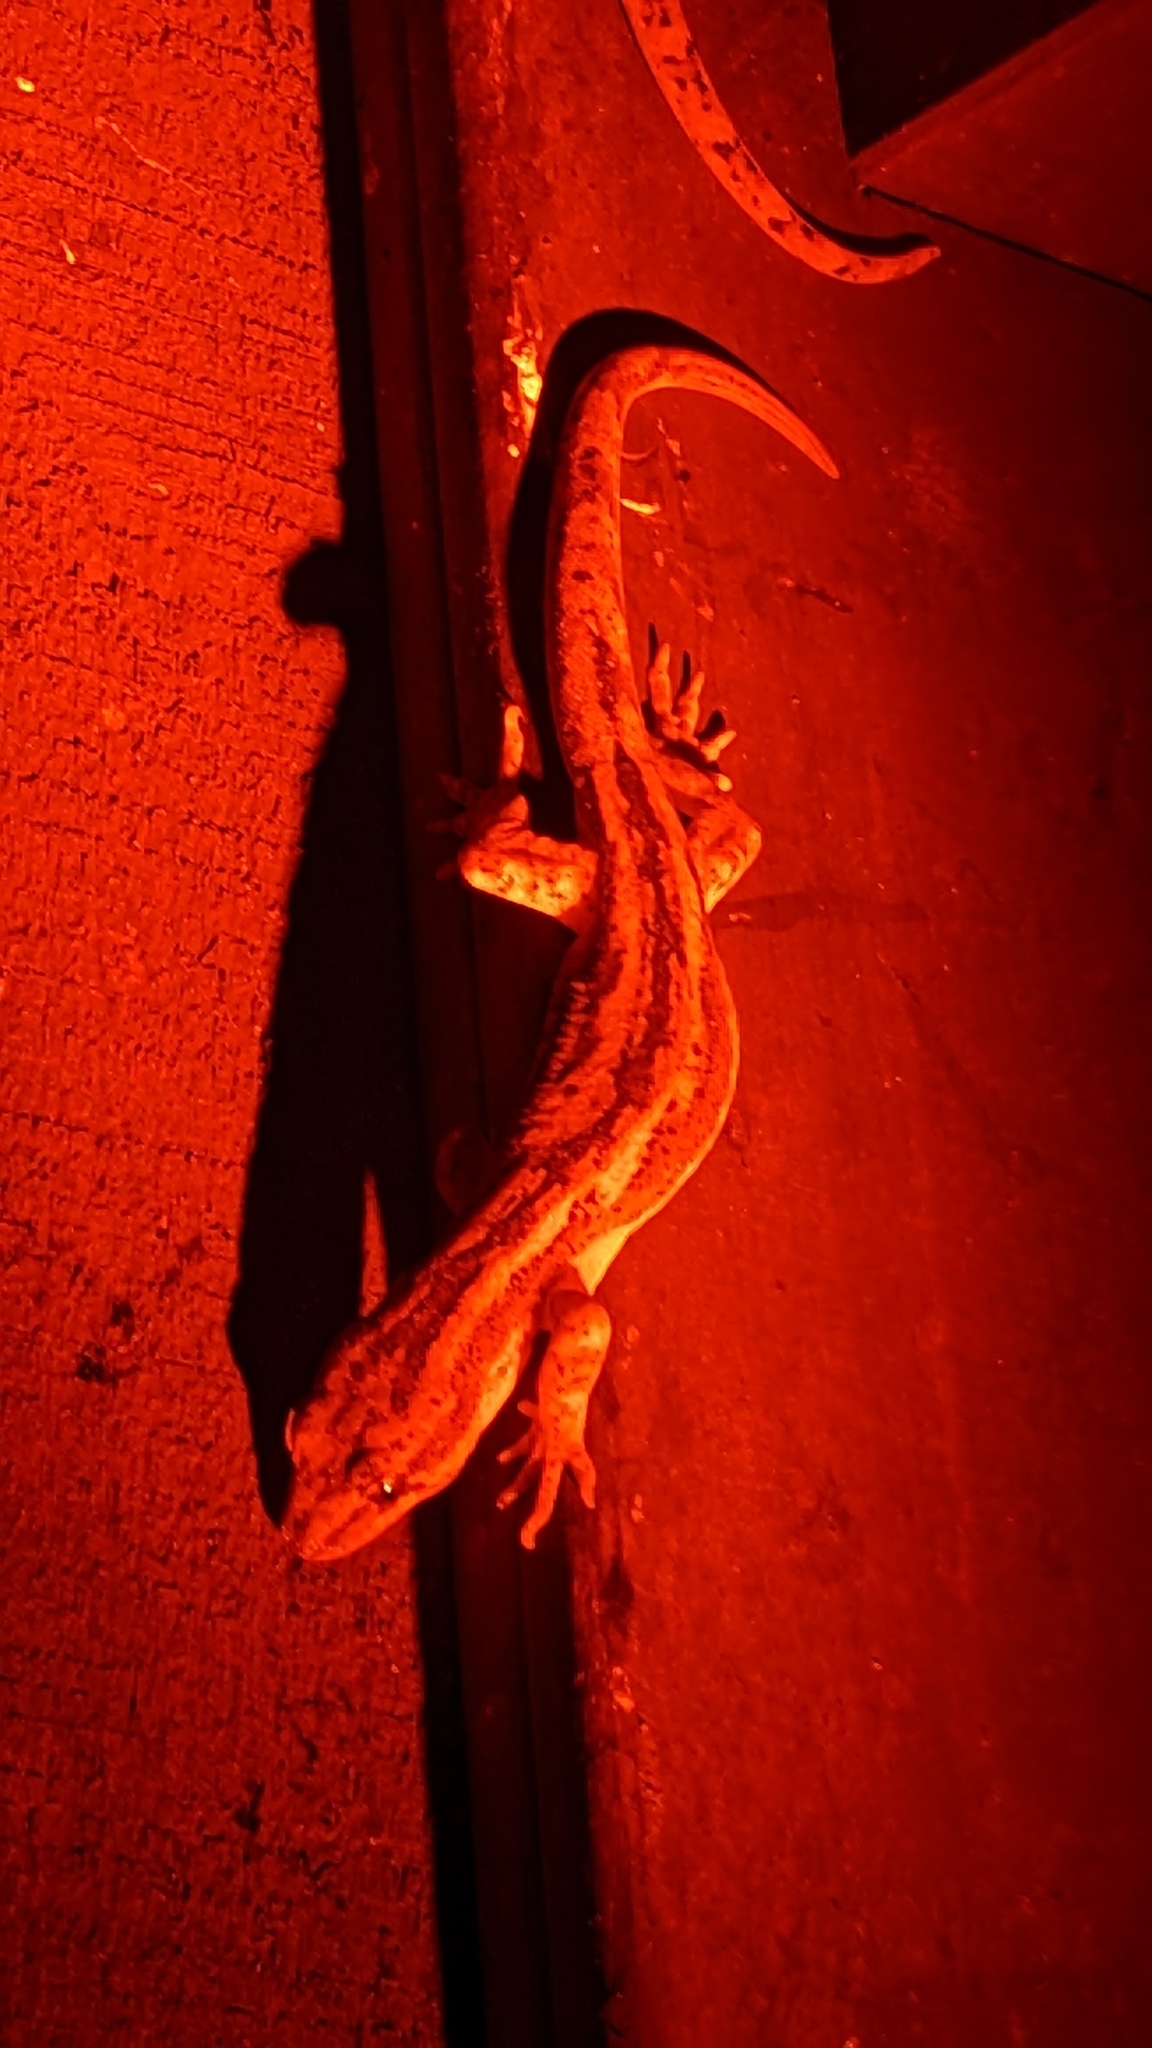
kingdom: Animalia
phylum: Chordata
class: Squamata
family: Diplodactylidae
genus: Woodworthia
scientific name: Woodworthia maculata
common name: Raukawa gecko
